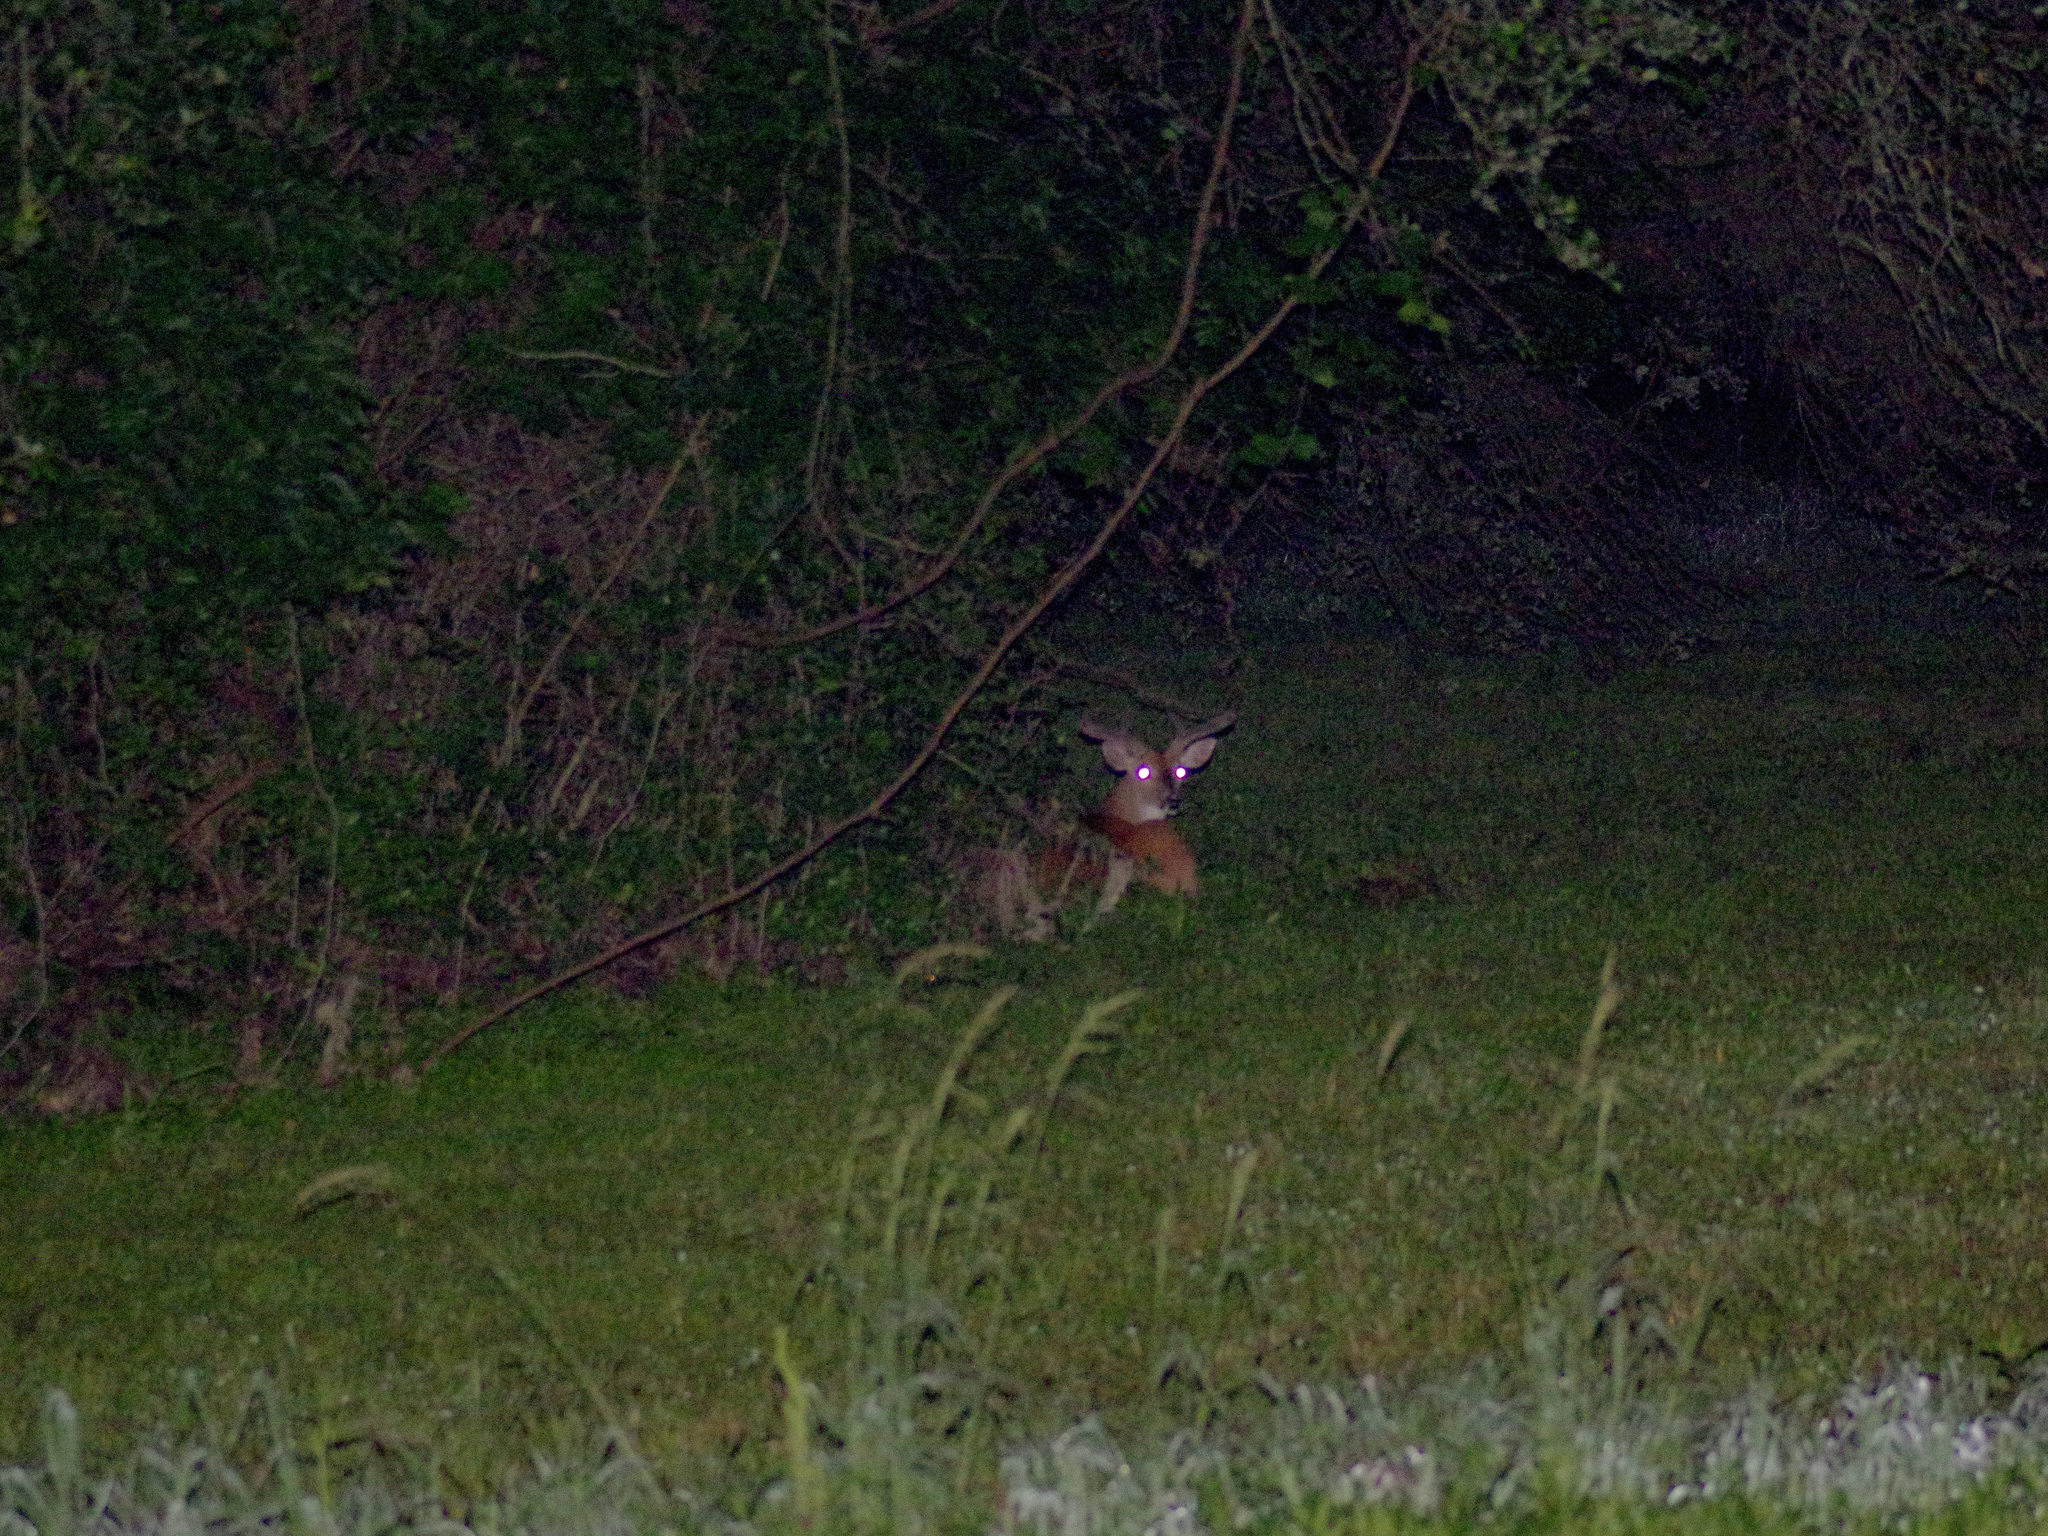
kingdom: Animalia
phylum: Chordata
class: Mammalia
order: Artiodactyla
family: Cervidae
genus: Odocoileus
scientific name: Odocoileus virginianus
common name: White-tailed deer
